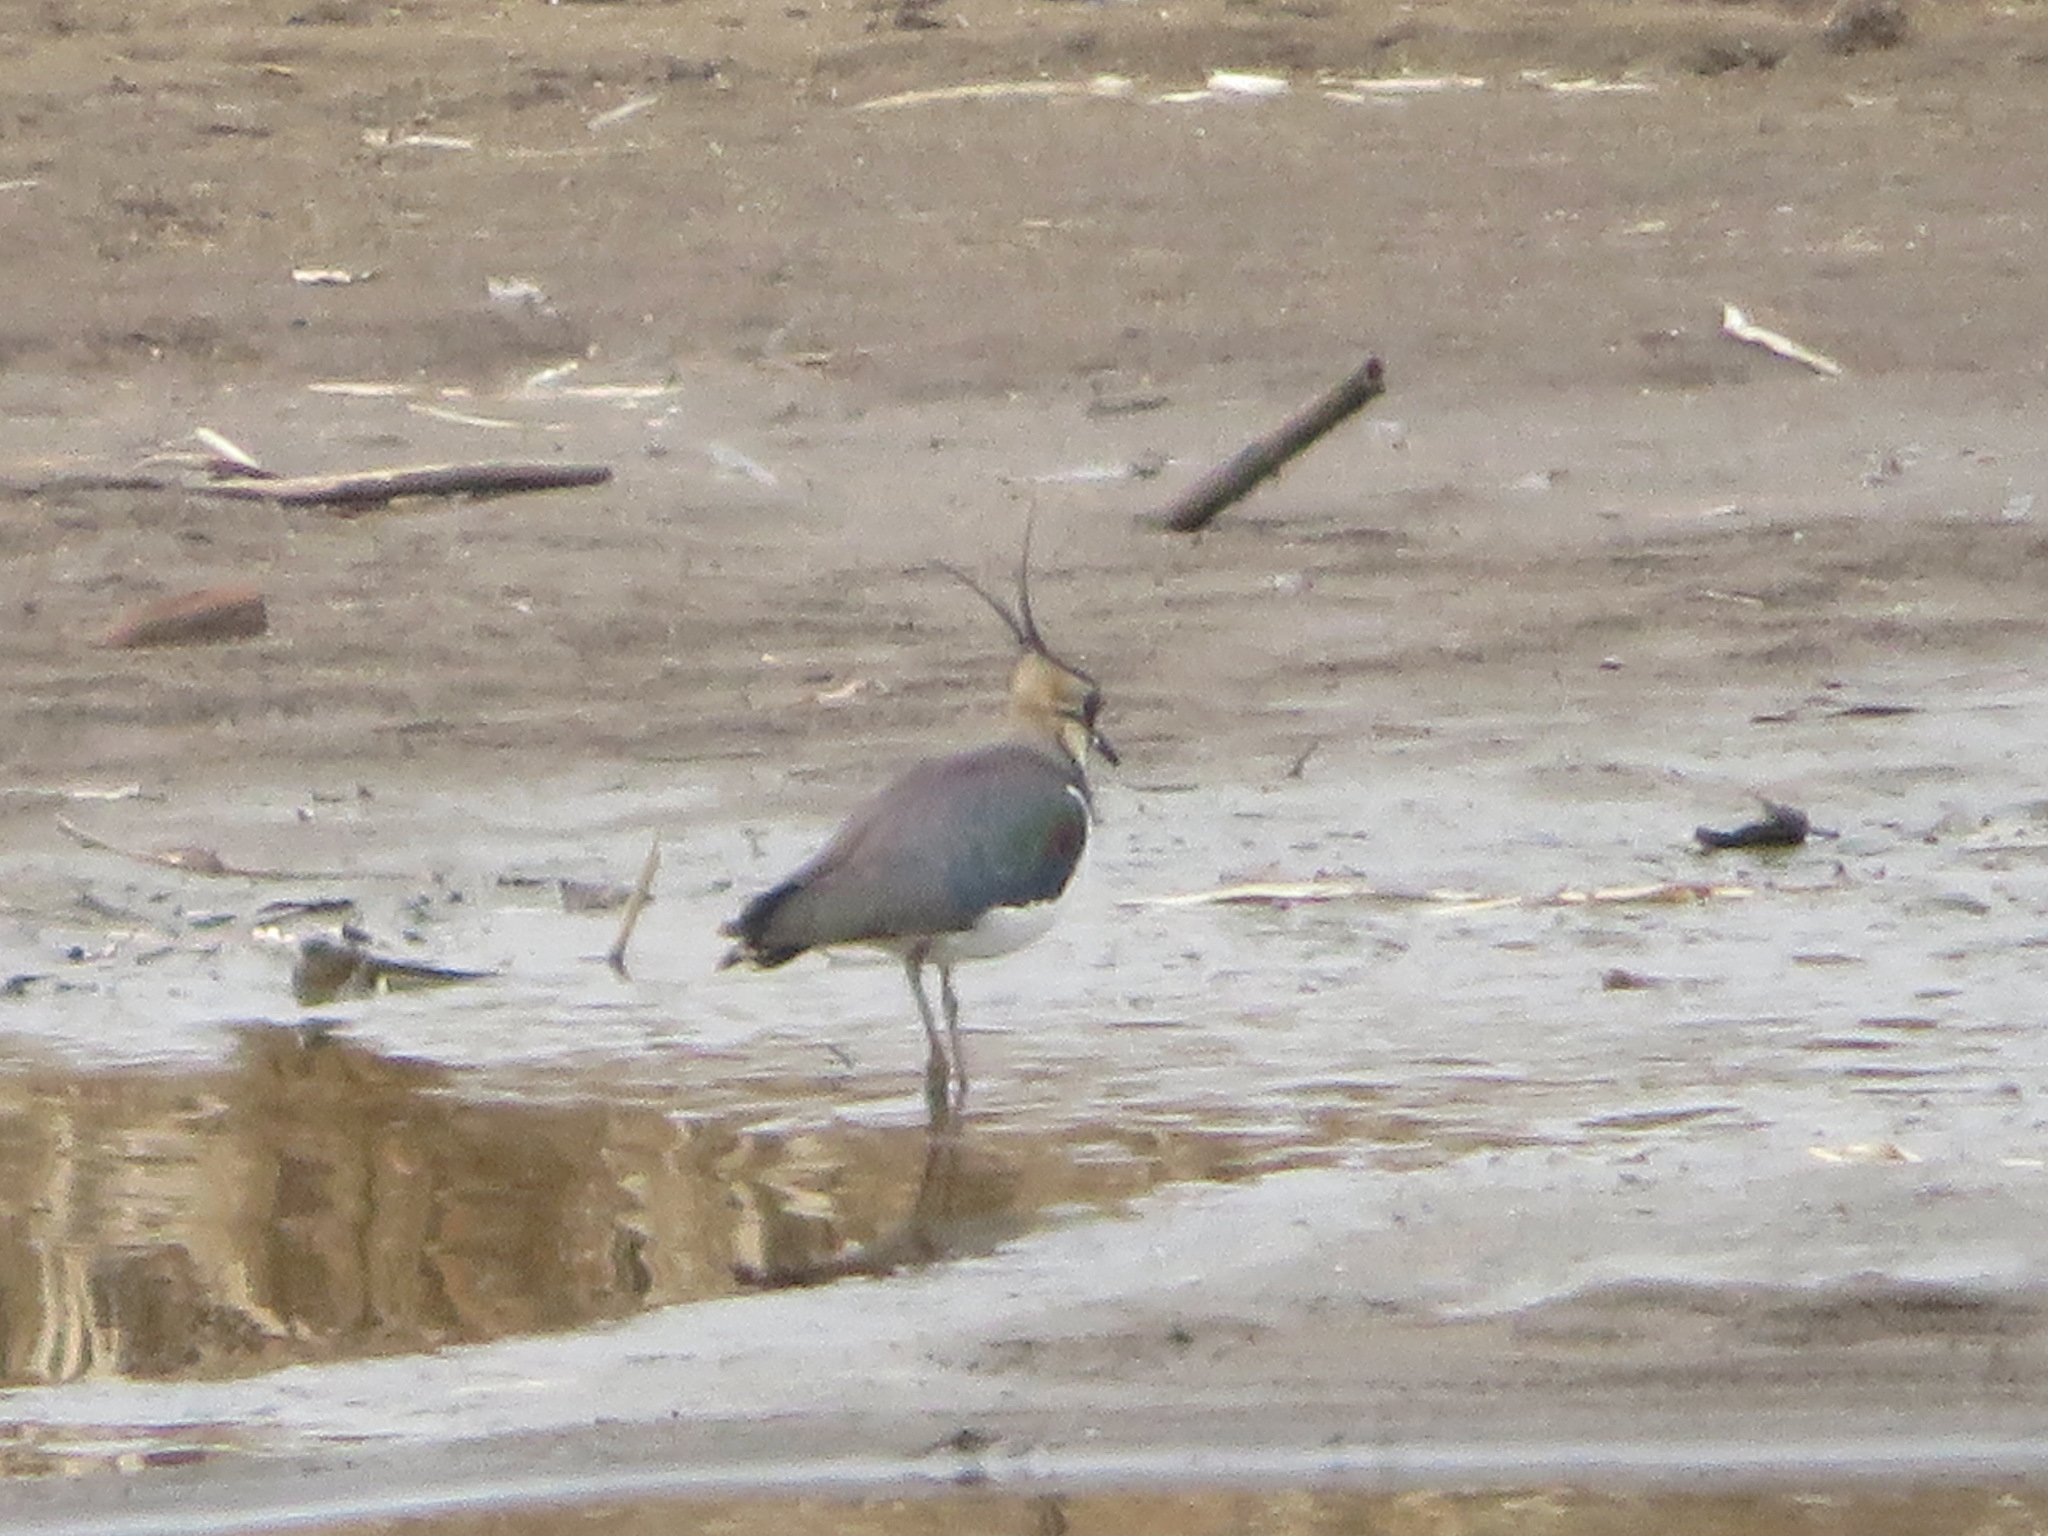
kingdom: Animalia
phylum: Chordata
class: Aves
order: Charadriiformes
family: Charadriidae
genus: Vanellus
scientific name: Vanellus vanellus
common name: Northern lapwing
